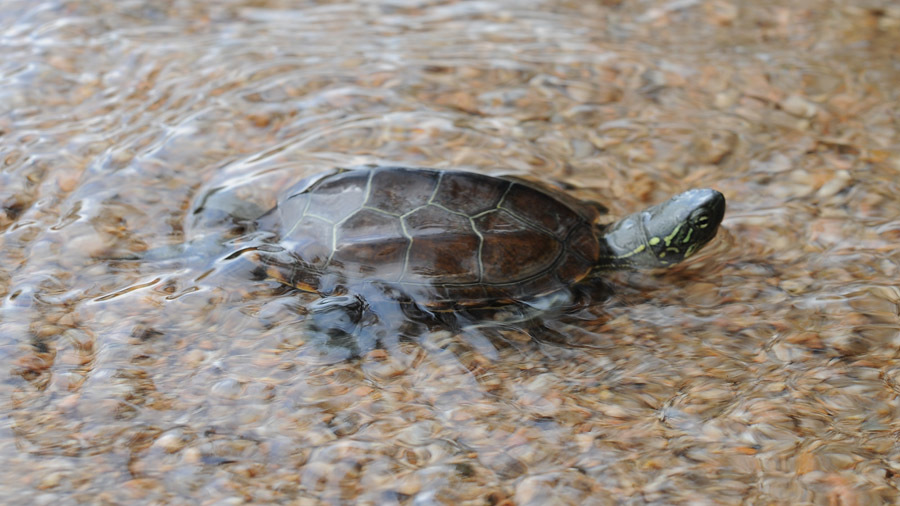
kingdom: Animalia
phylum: Chordata
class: Testudines
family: Geoemydidae
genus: Mauremys
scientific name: Mauremys reevesii
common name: Chinese pond turtle
